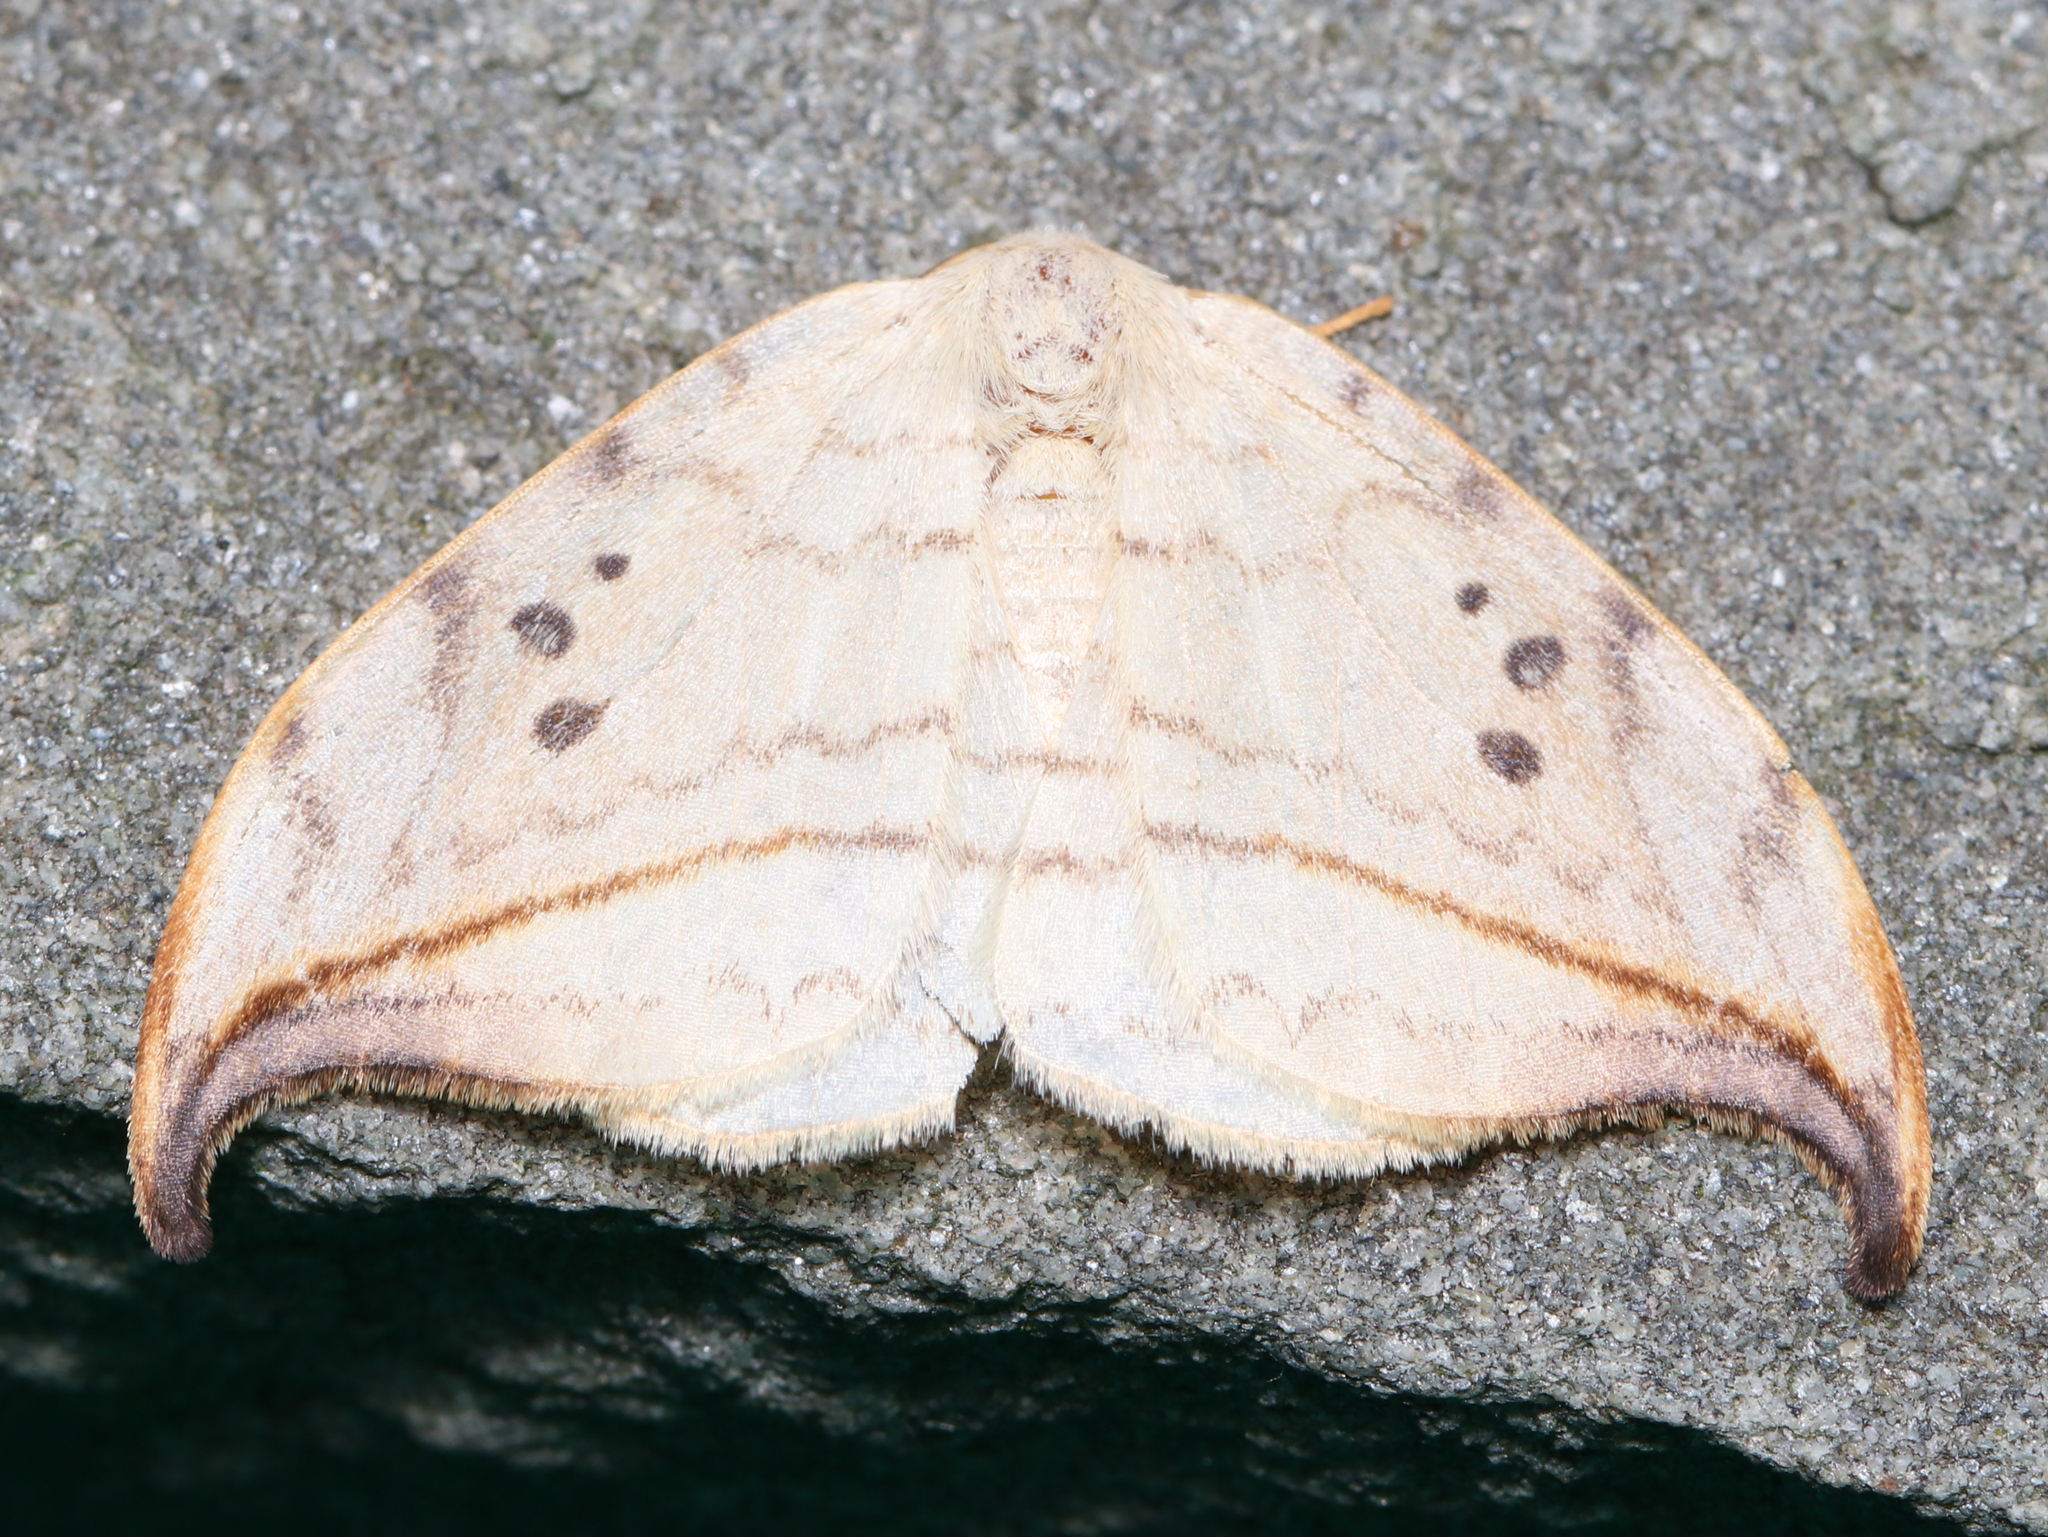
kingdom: Animalia
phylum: Arthropoda
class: Insecta
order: Lepidoptera
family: Drepanidae
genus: Drepana
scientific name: Drepana arcuata
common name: Arched hooktip moth
